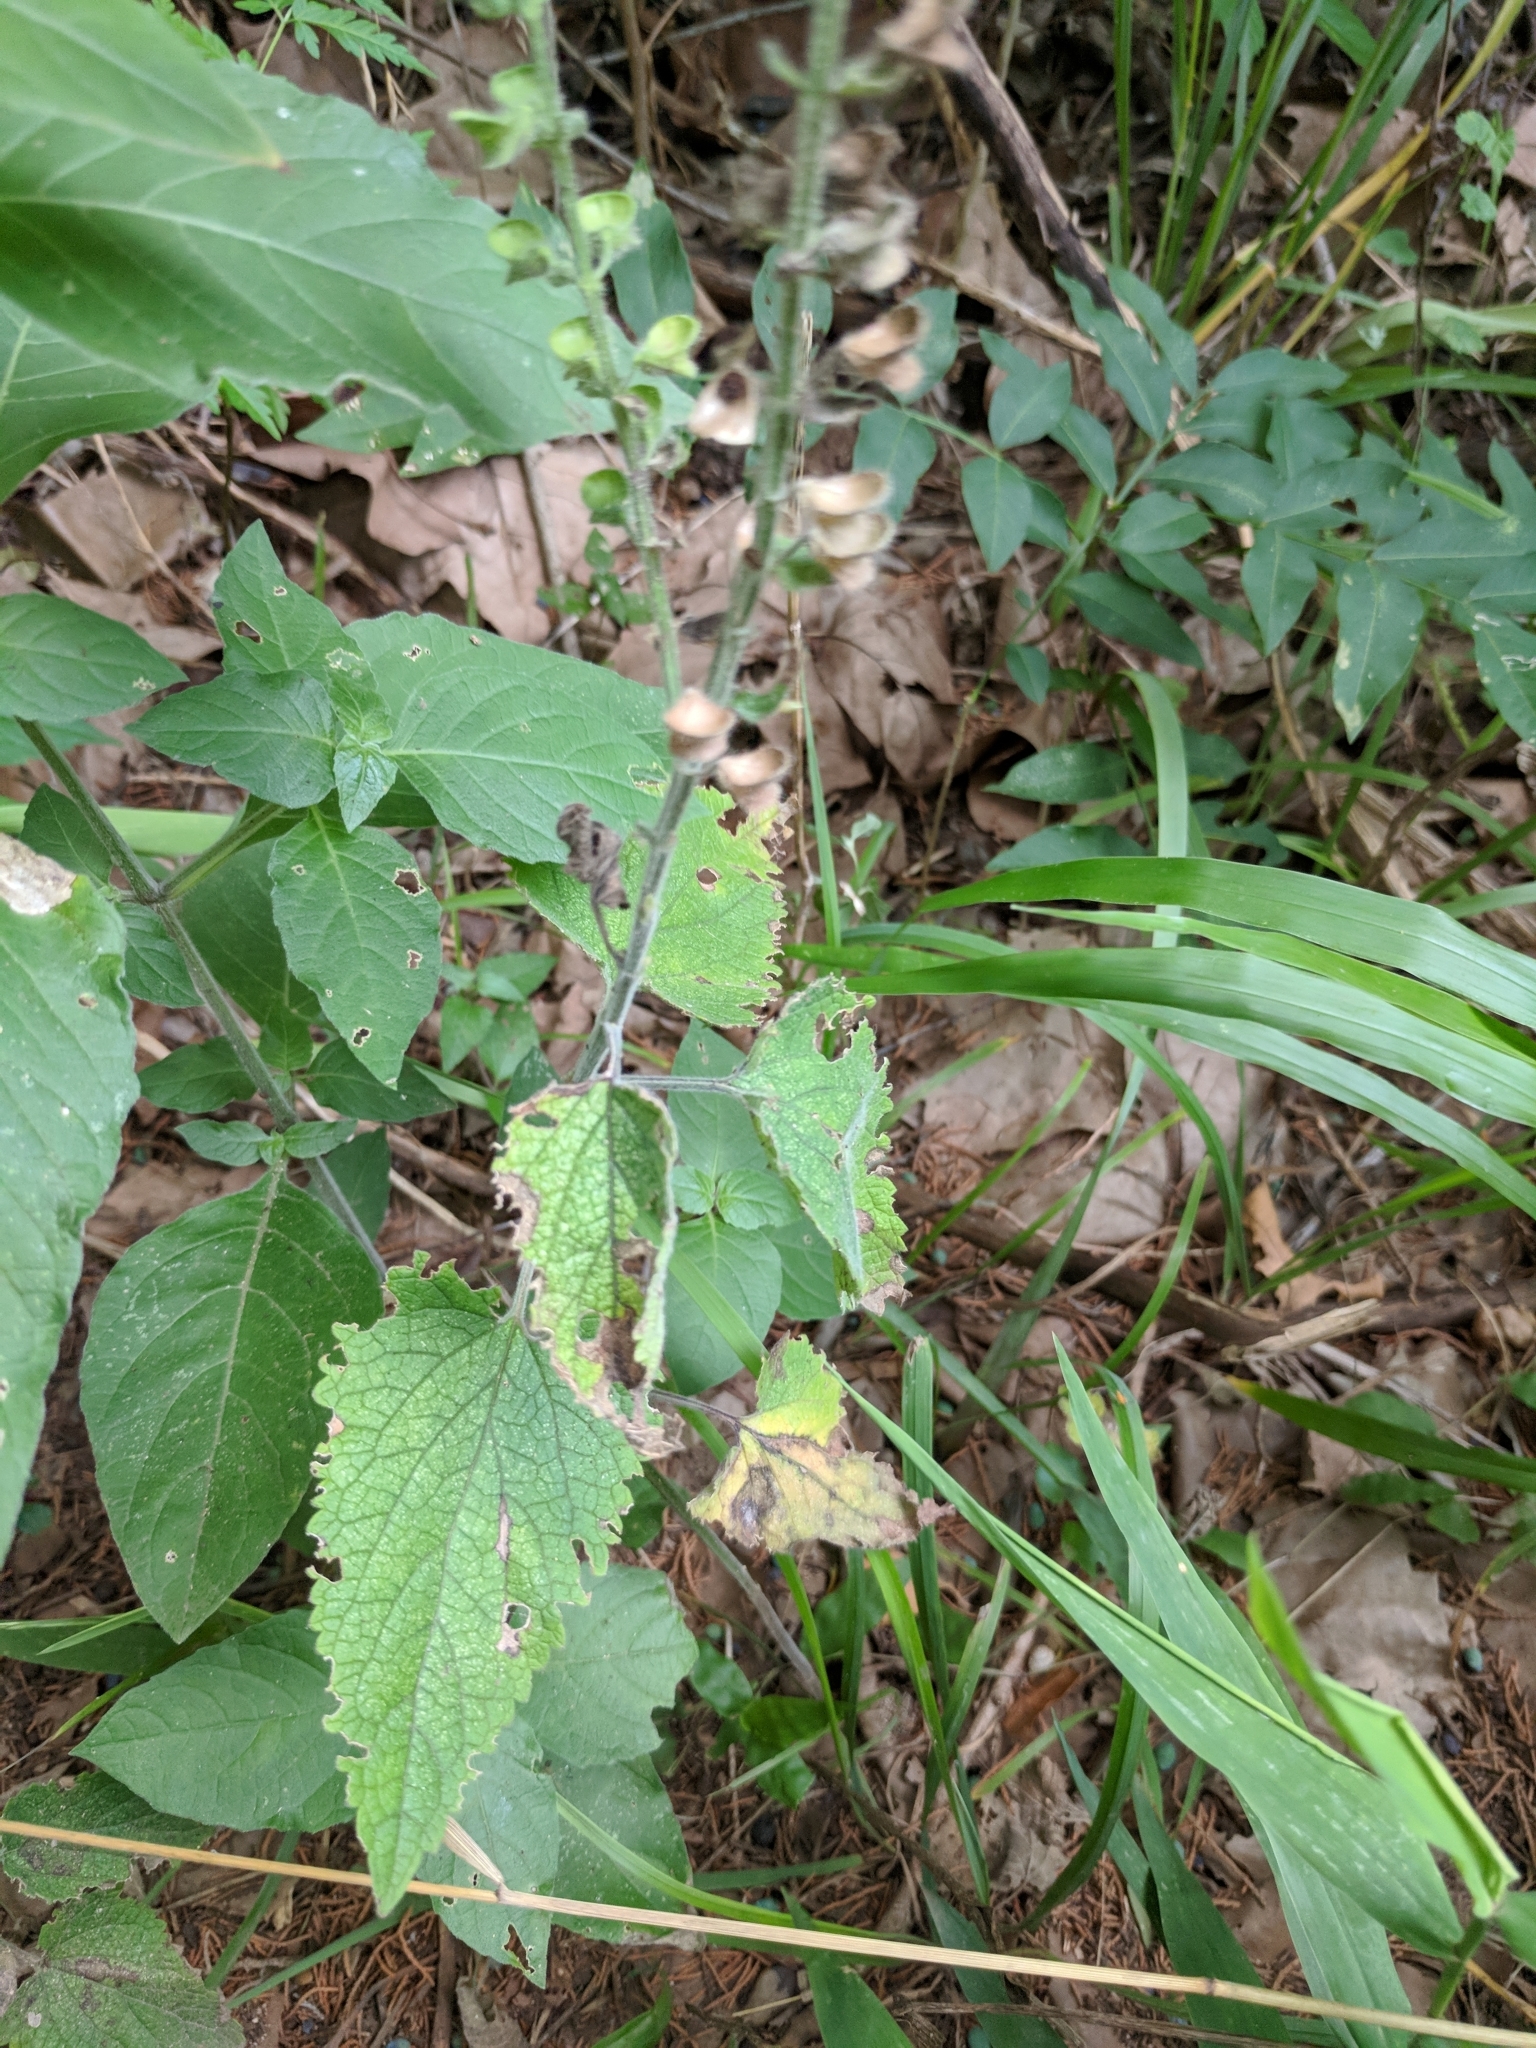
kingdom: Plantae
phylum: Tracheophyta
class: Magnoliopsida
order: Lamiales
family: Lamiaceae
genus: Scutellaria
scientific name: Scutellaria ovata
